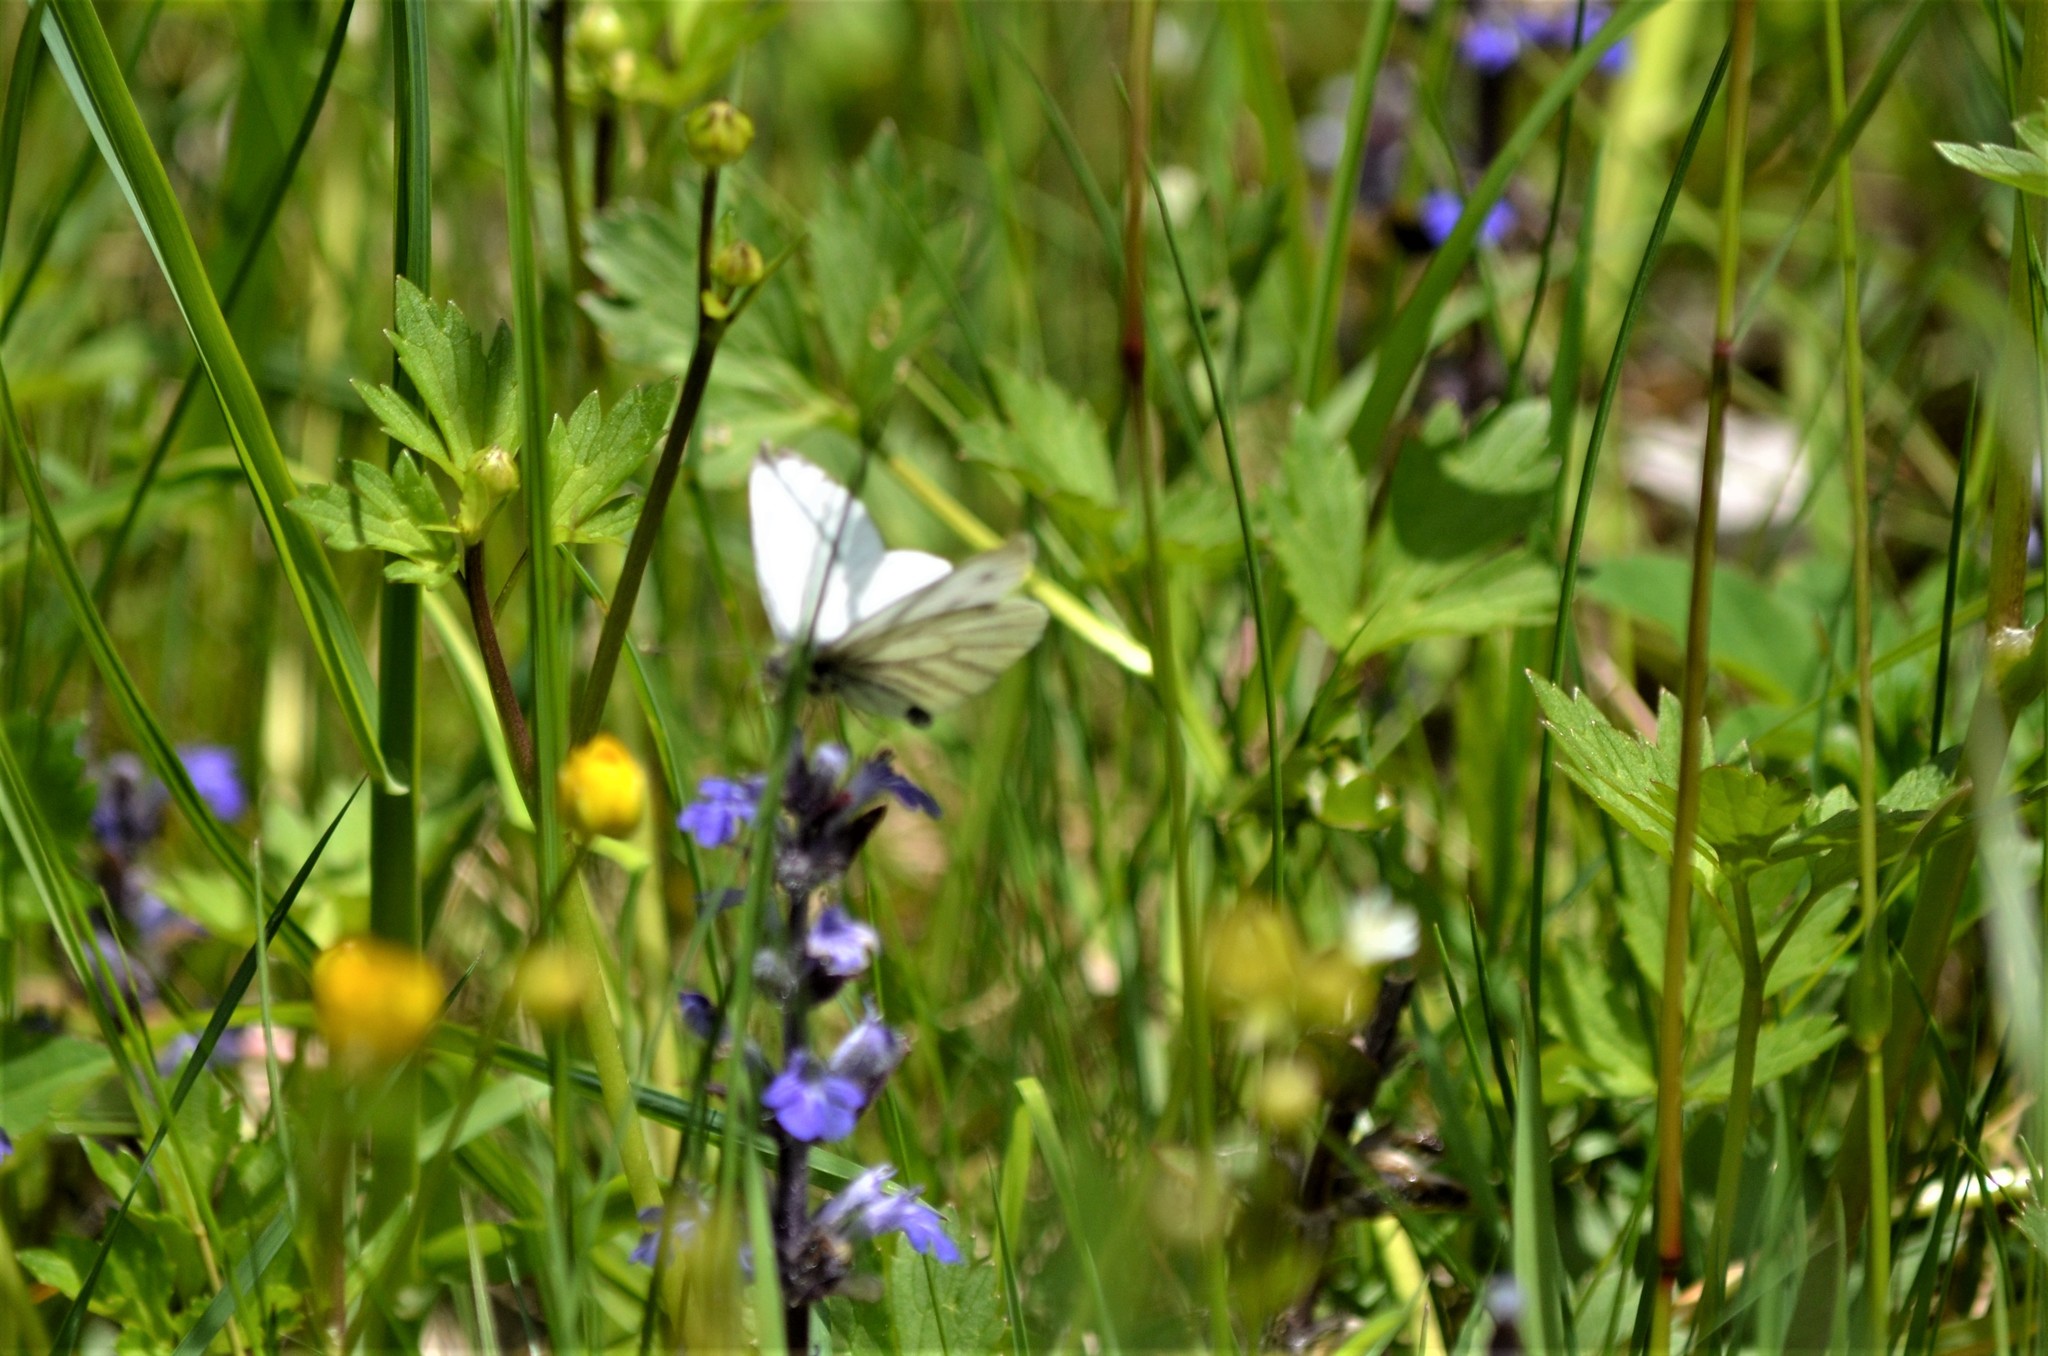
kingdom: Animalia
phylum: Arthropoda
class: Insecta
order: Lepidoptera
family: Pieridae
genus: Pieris
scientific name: Pieris napi
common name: Green-veined white
